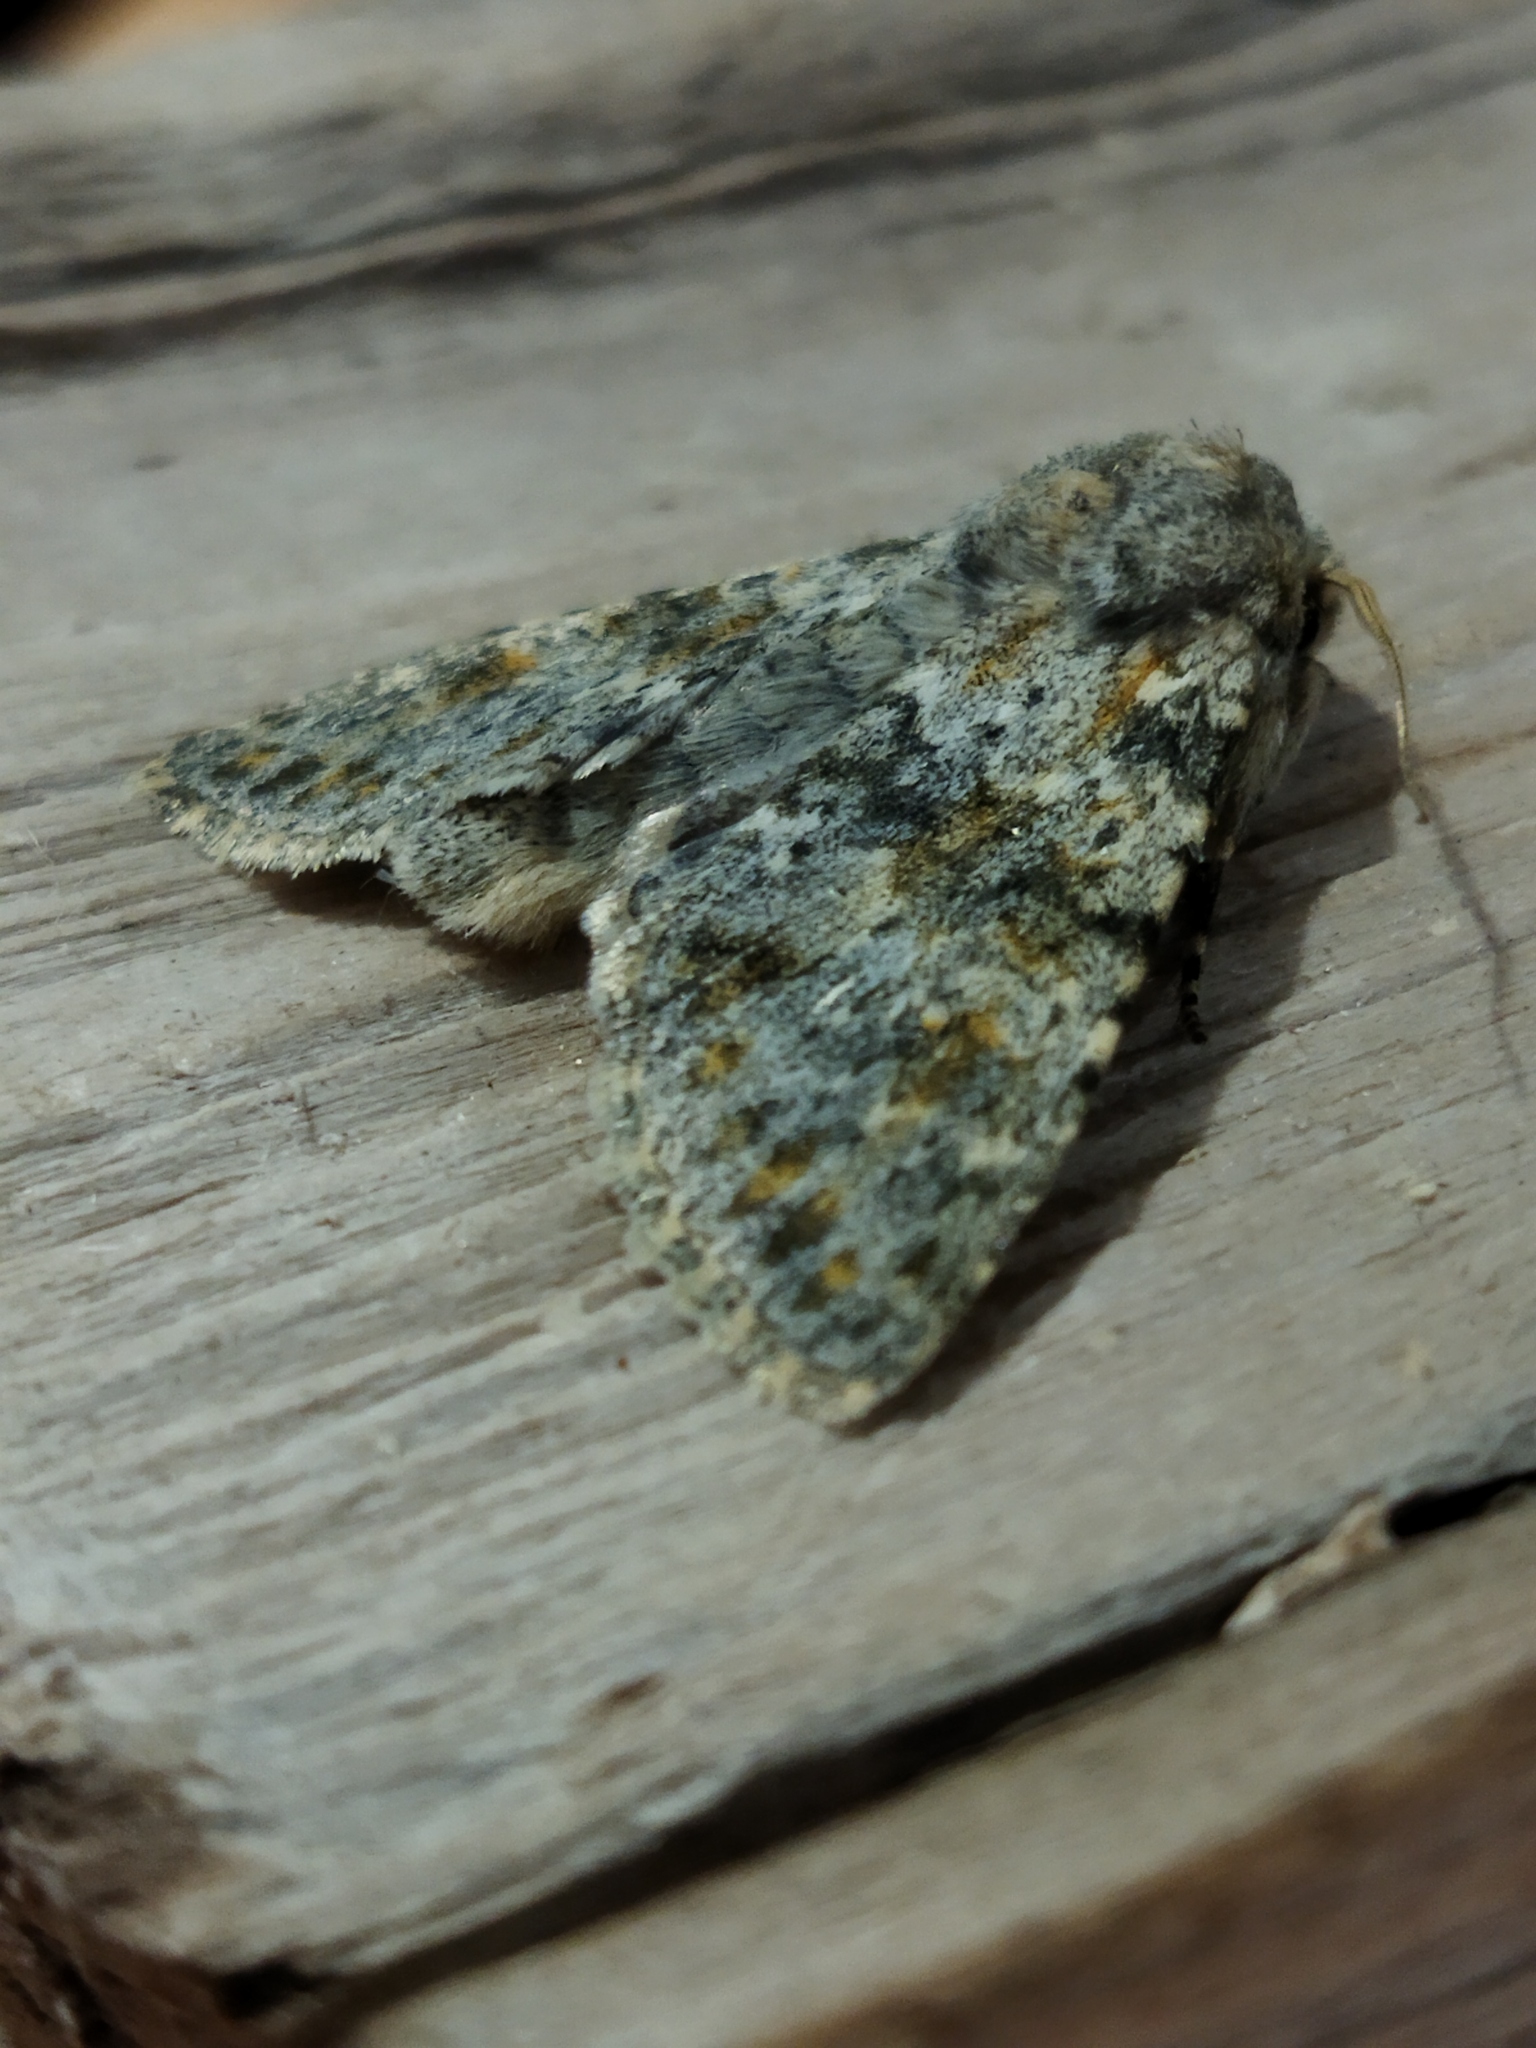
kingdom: Animalia
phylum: Arthropoda
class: Insecta
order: Lepidoptera
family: Noctuidae
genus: Polymixis
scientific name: Polymixis rufocincta
